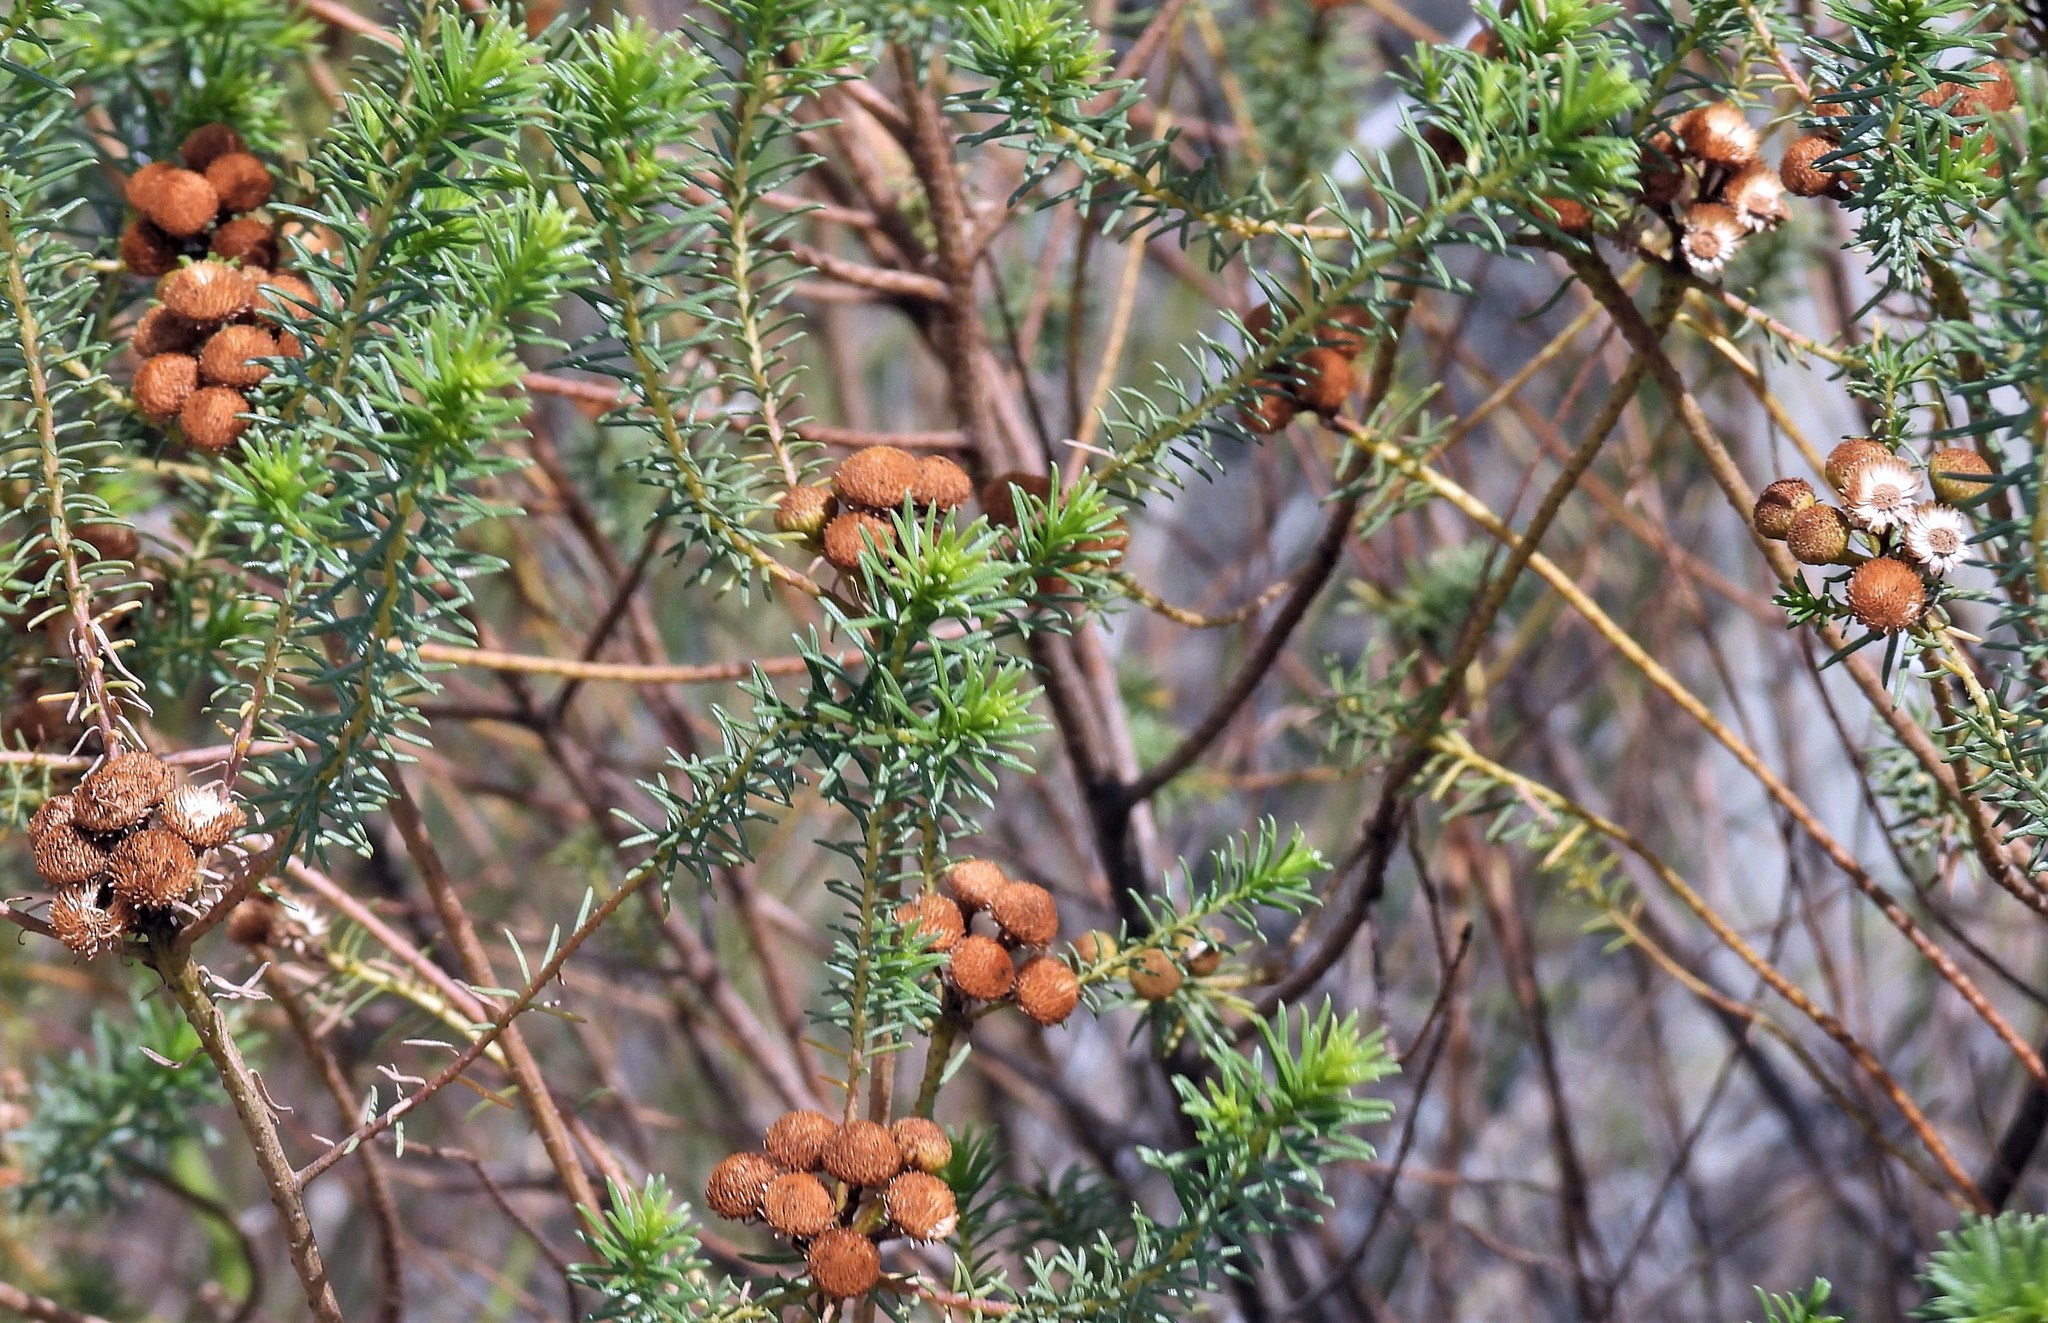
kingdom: Plantae
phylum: Tracheophyta
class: Magnoliopsida
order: Asterales
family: Asteraceae
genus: Baccharis
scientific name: Baccharis aliena
